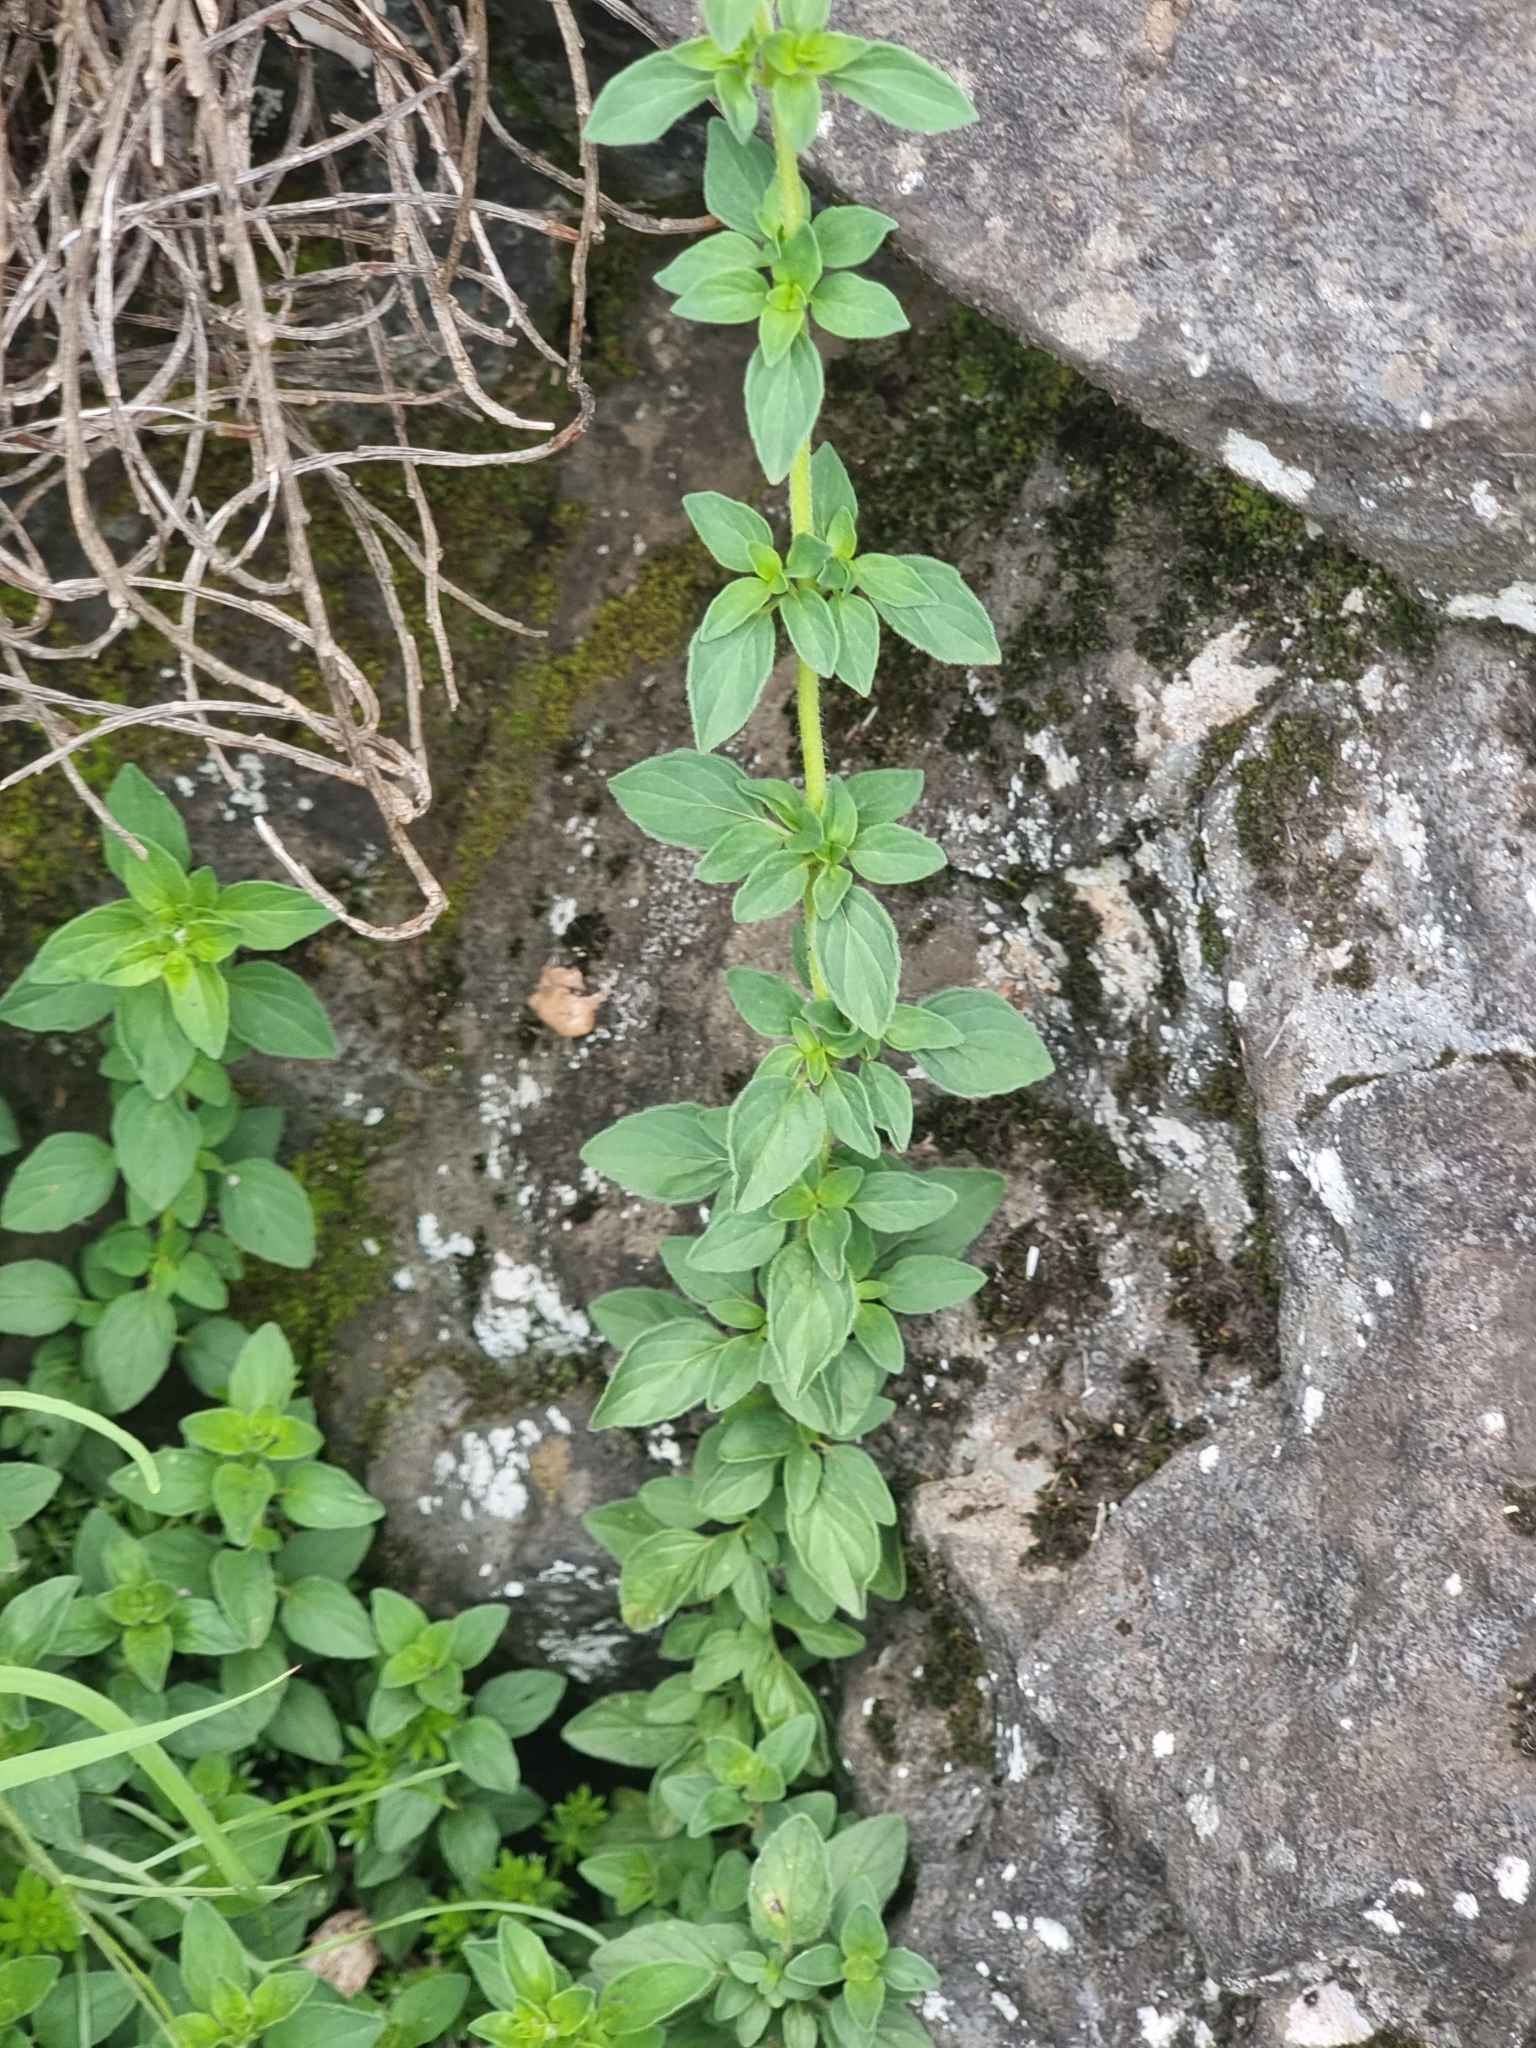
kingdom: Plantae
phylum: Tracheophyta
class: Magnoliopsida
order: Lamiales
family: Lamiaceae
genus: Origanum
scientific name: Origanum vulgare
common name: Wild marjoram
